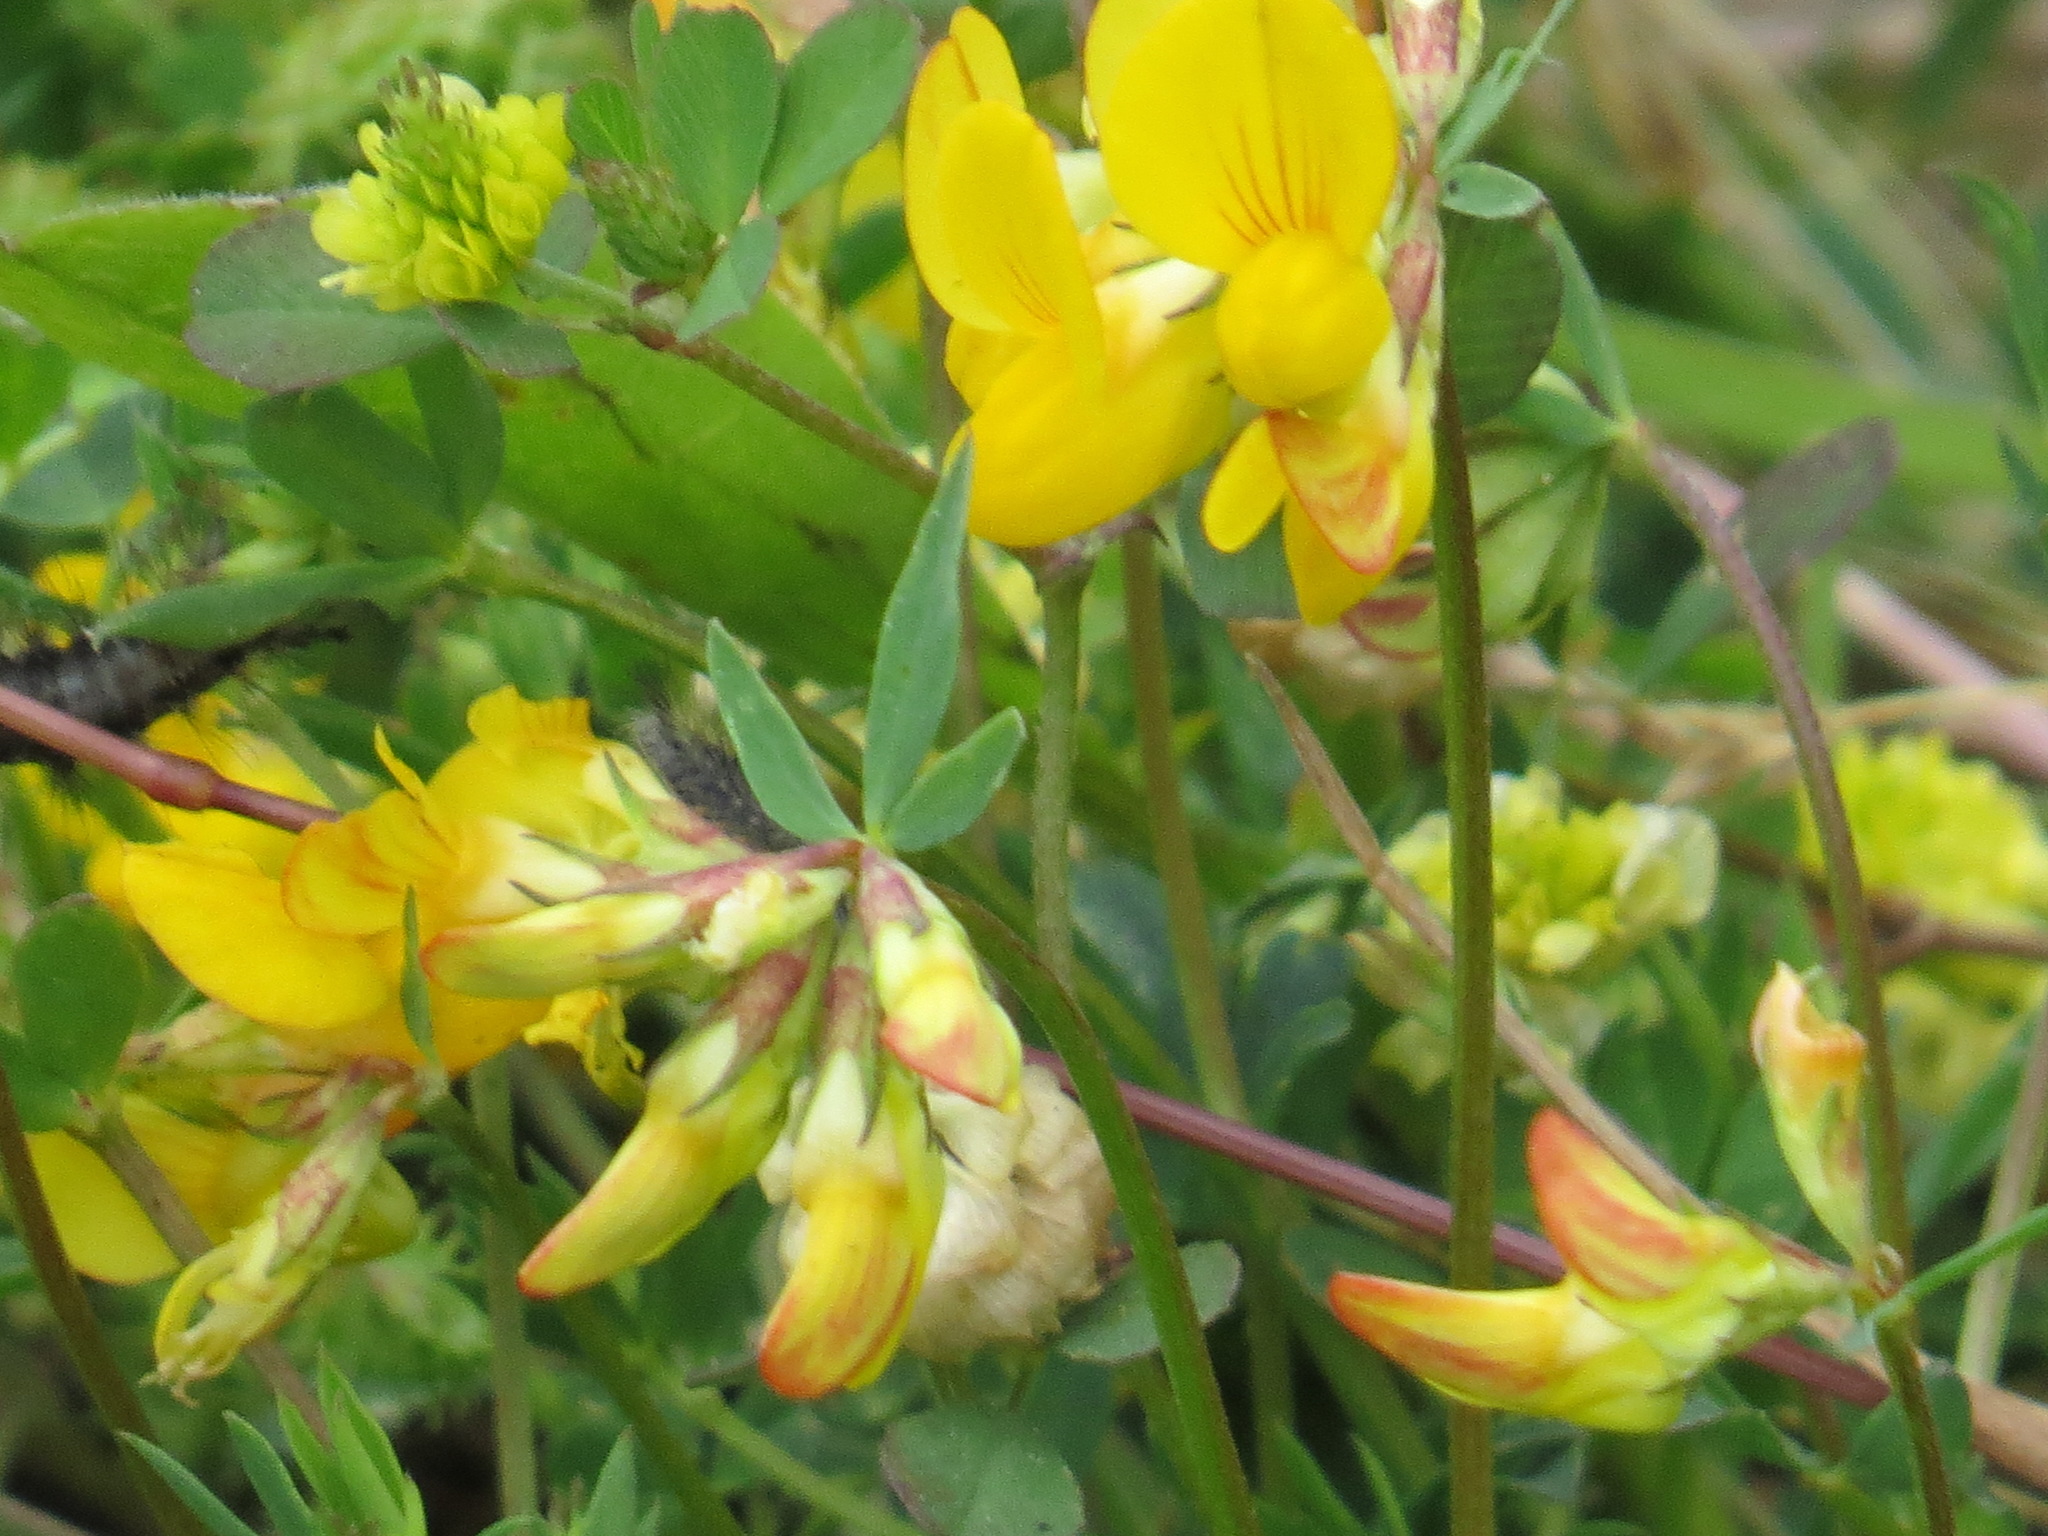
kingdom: Plantae
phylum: Tracheophyta
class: Magnoliopsida
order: Fabales
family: Fabaceae
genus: Lotus
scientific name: Lotus corniculatus
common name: Common bird's-foot-trefoil
